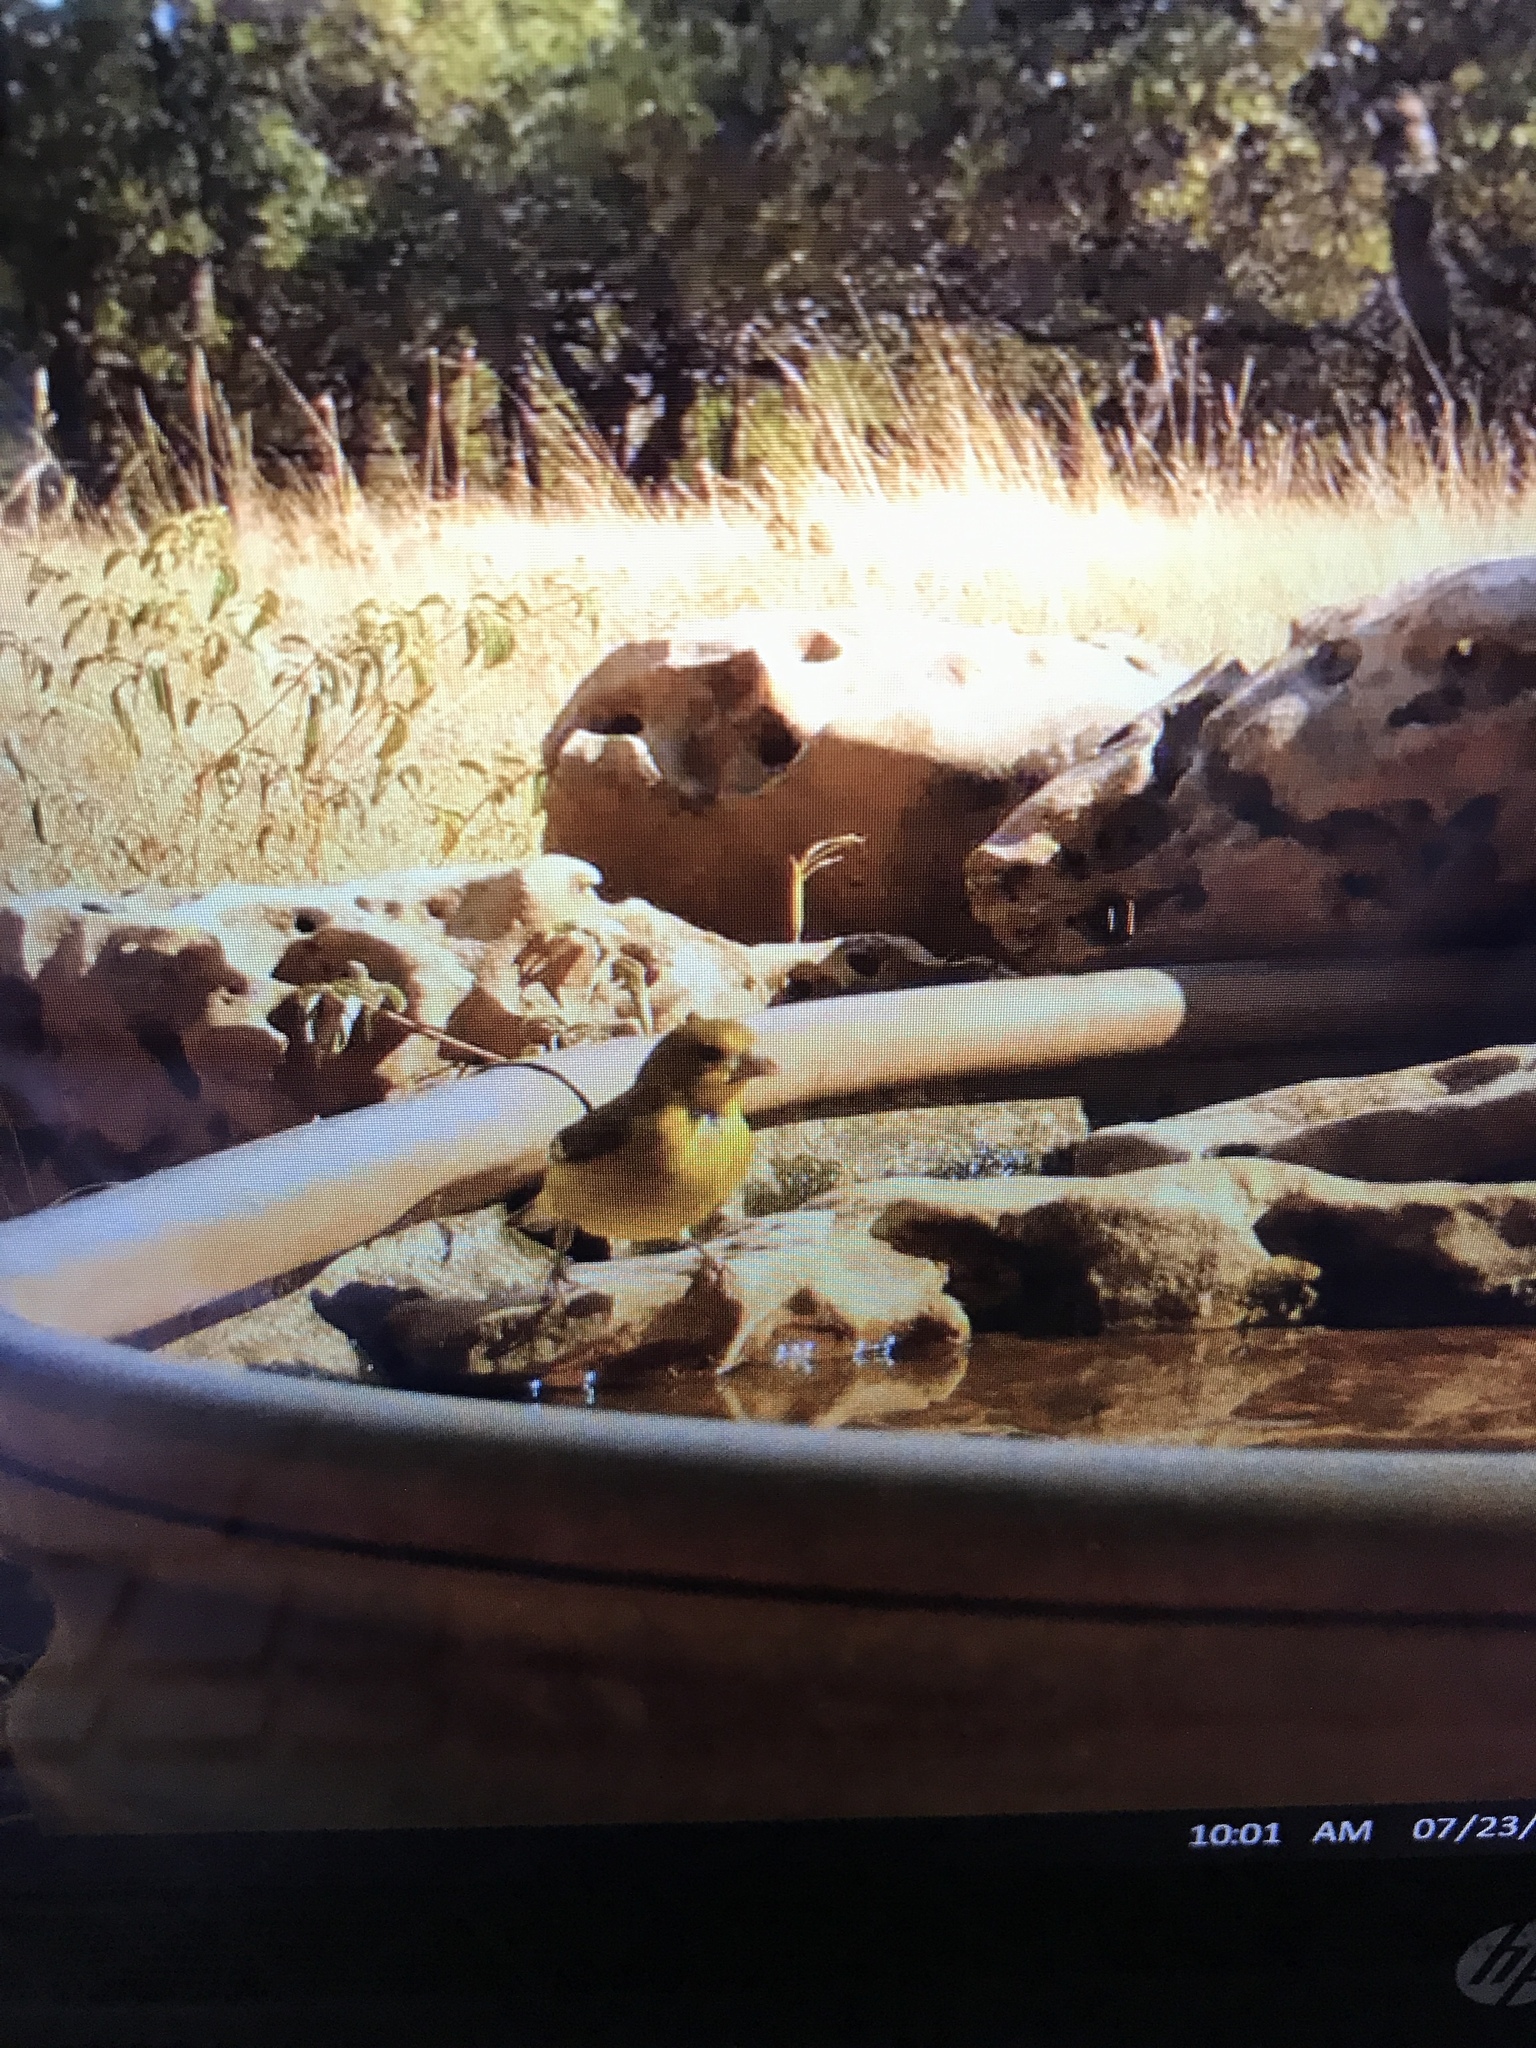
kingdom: Animalia
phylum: Chordata
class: Aves
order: Passeriformes
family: Fringillidae
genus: Spinus
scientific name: Spinus psaltria
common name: Lesser goldfinch
